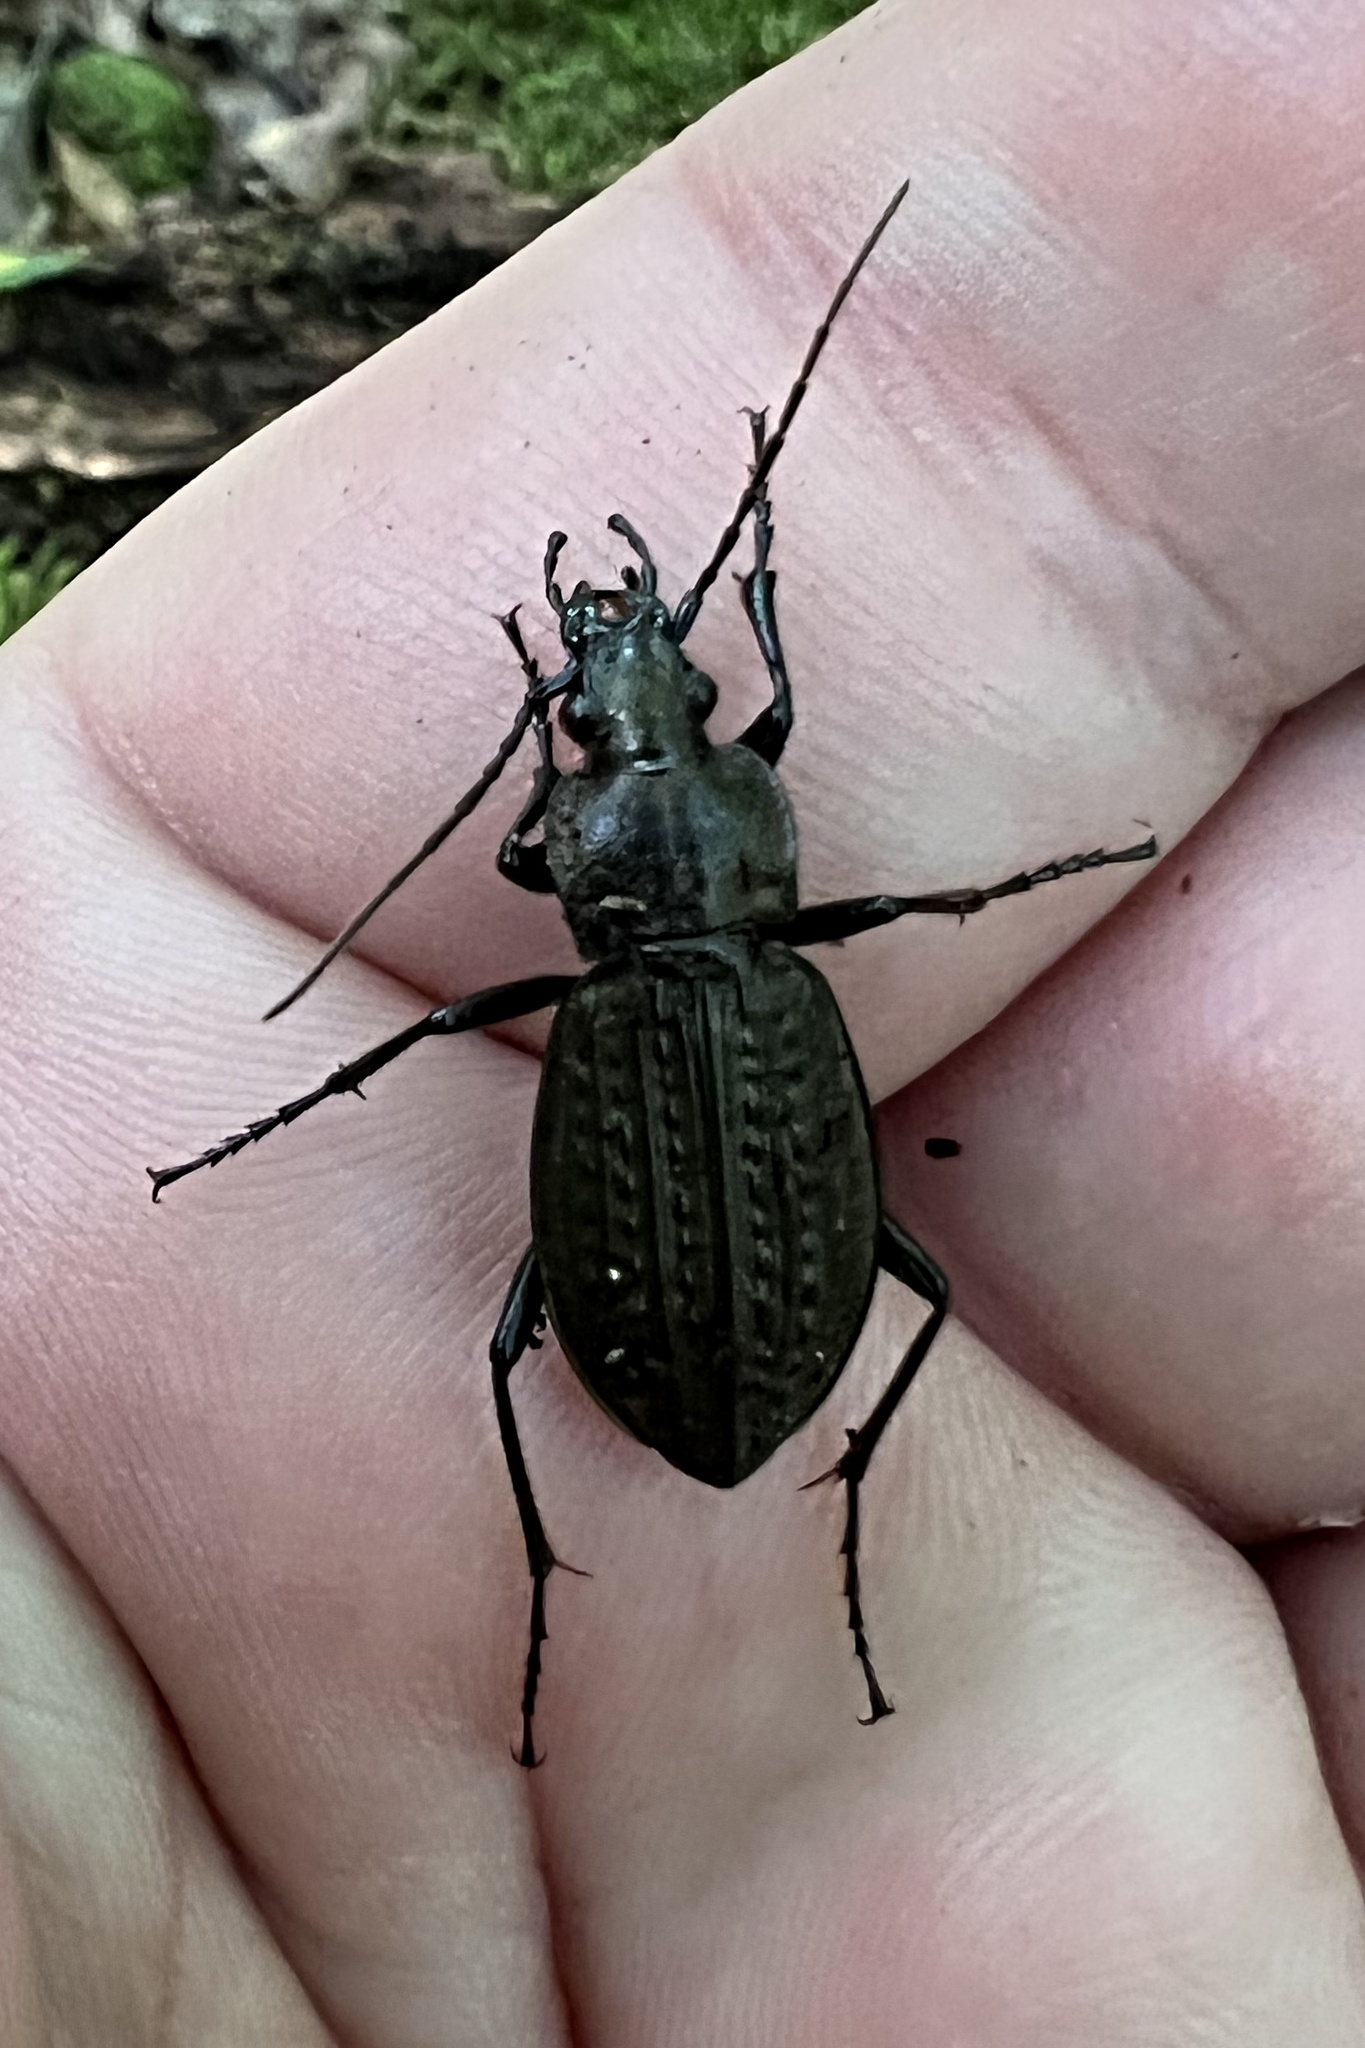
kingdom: Animalia
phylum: Arthropoda
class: Insecta
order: Coleoptera
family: Carabidae
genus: Carabus
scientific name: Carabus granulatus
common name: Granulate ground beetle
